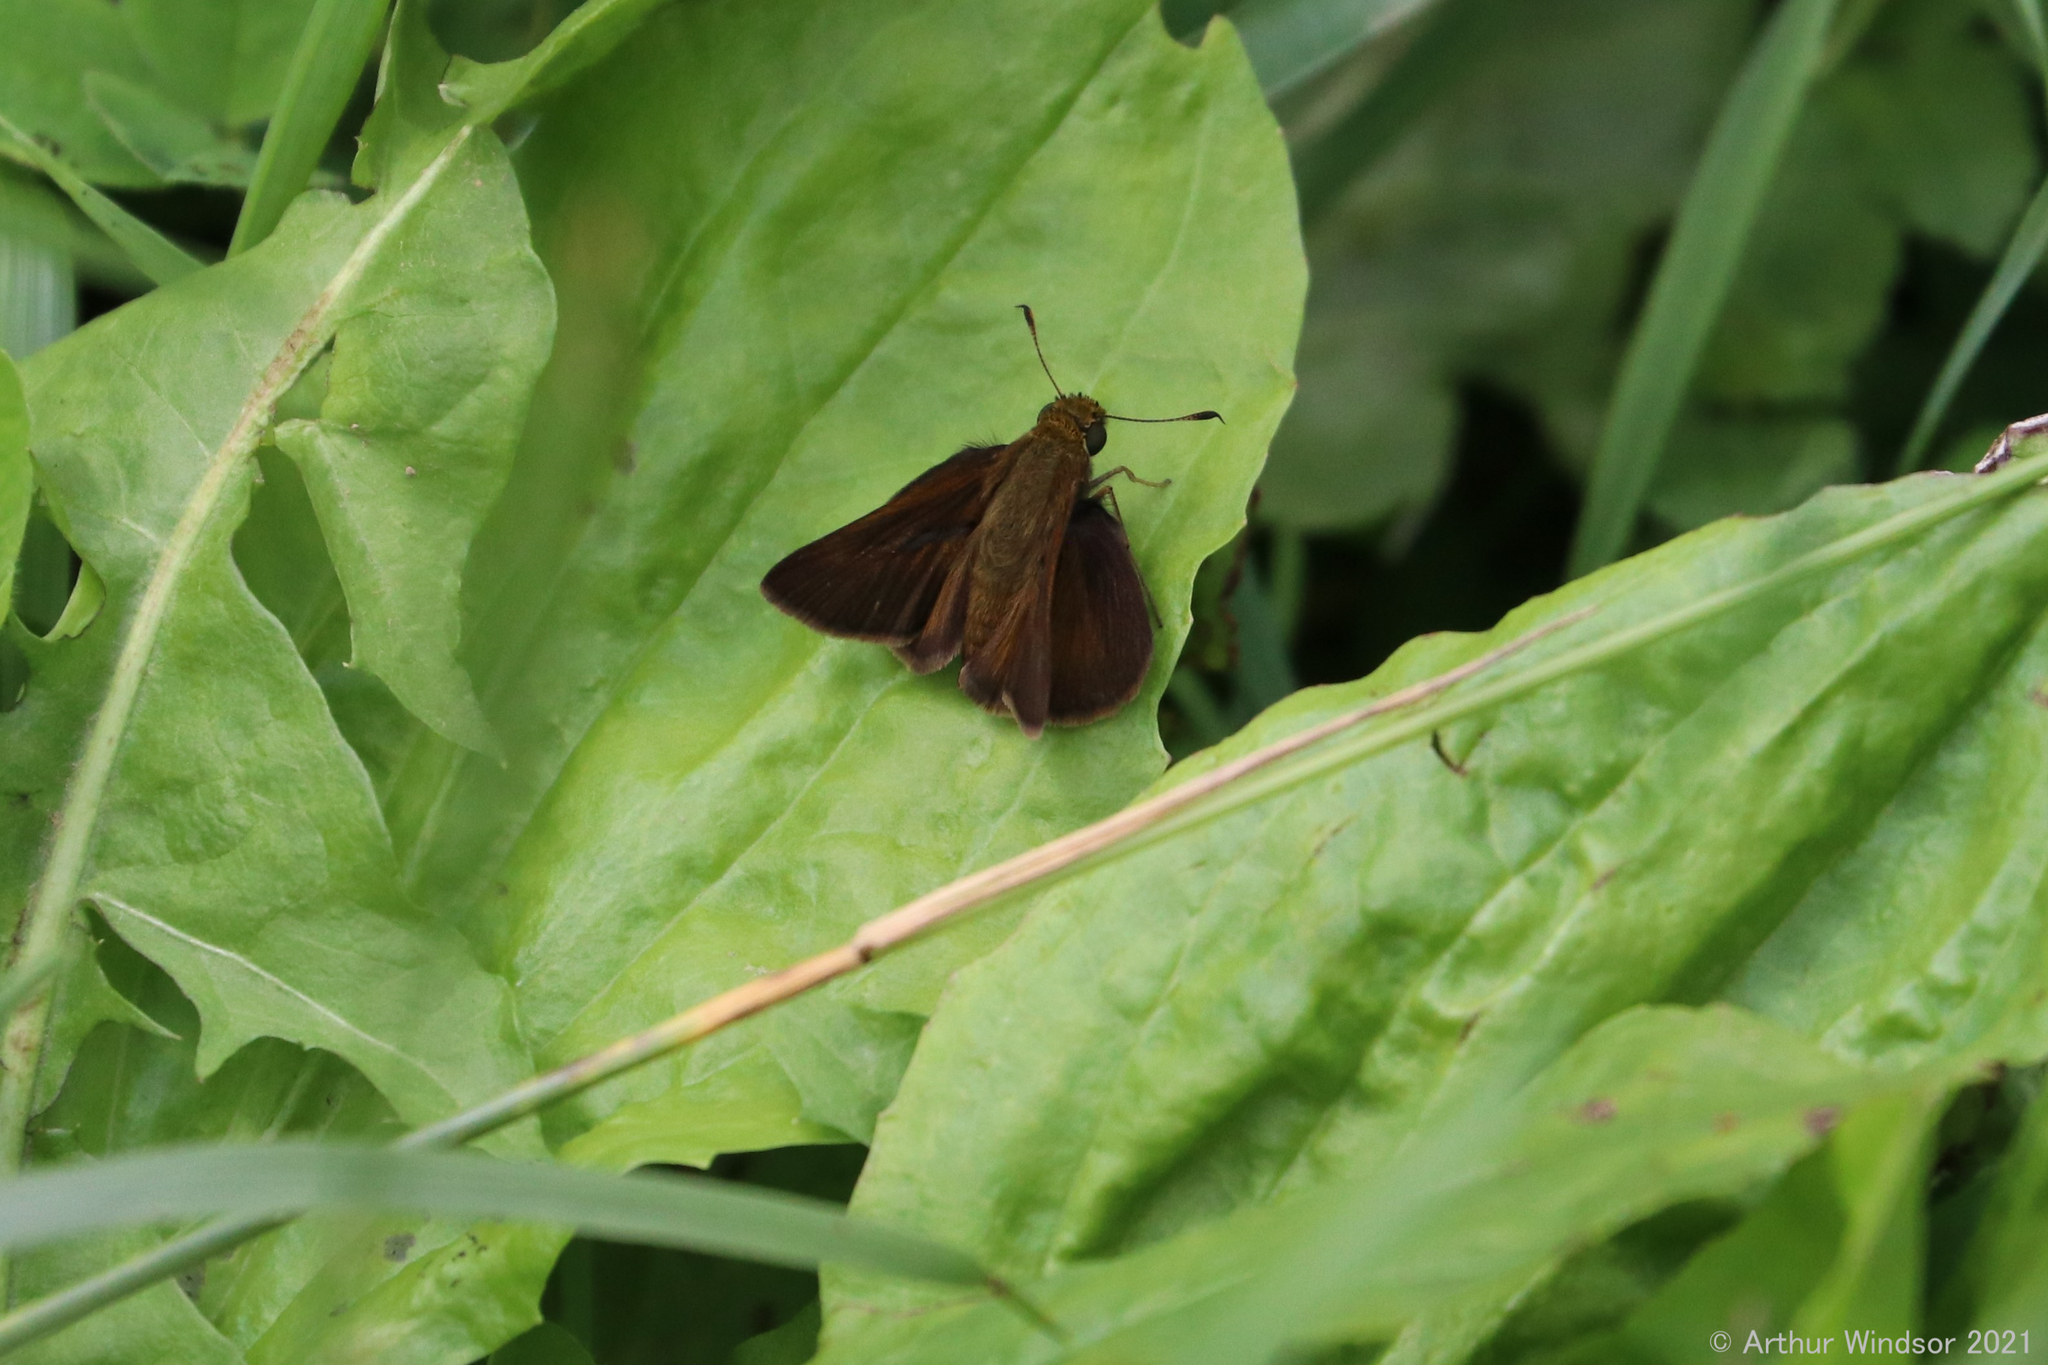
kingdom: Animalia
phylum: Arthropoda
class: Insecta
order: Lepidoptera
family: Hesperiidae
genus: Euphyes
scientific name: Euphyes vestris
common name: Dun skipper
